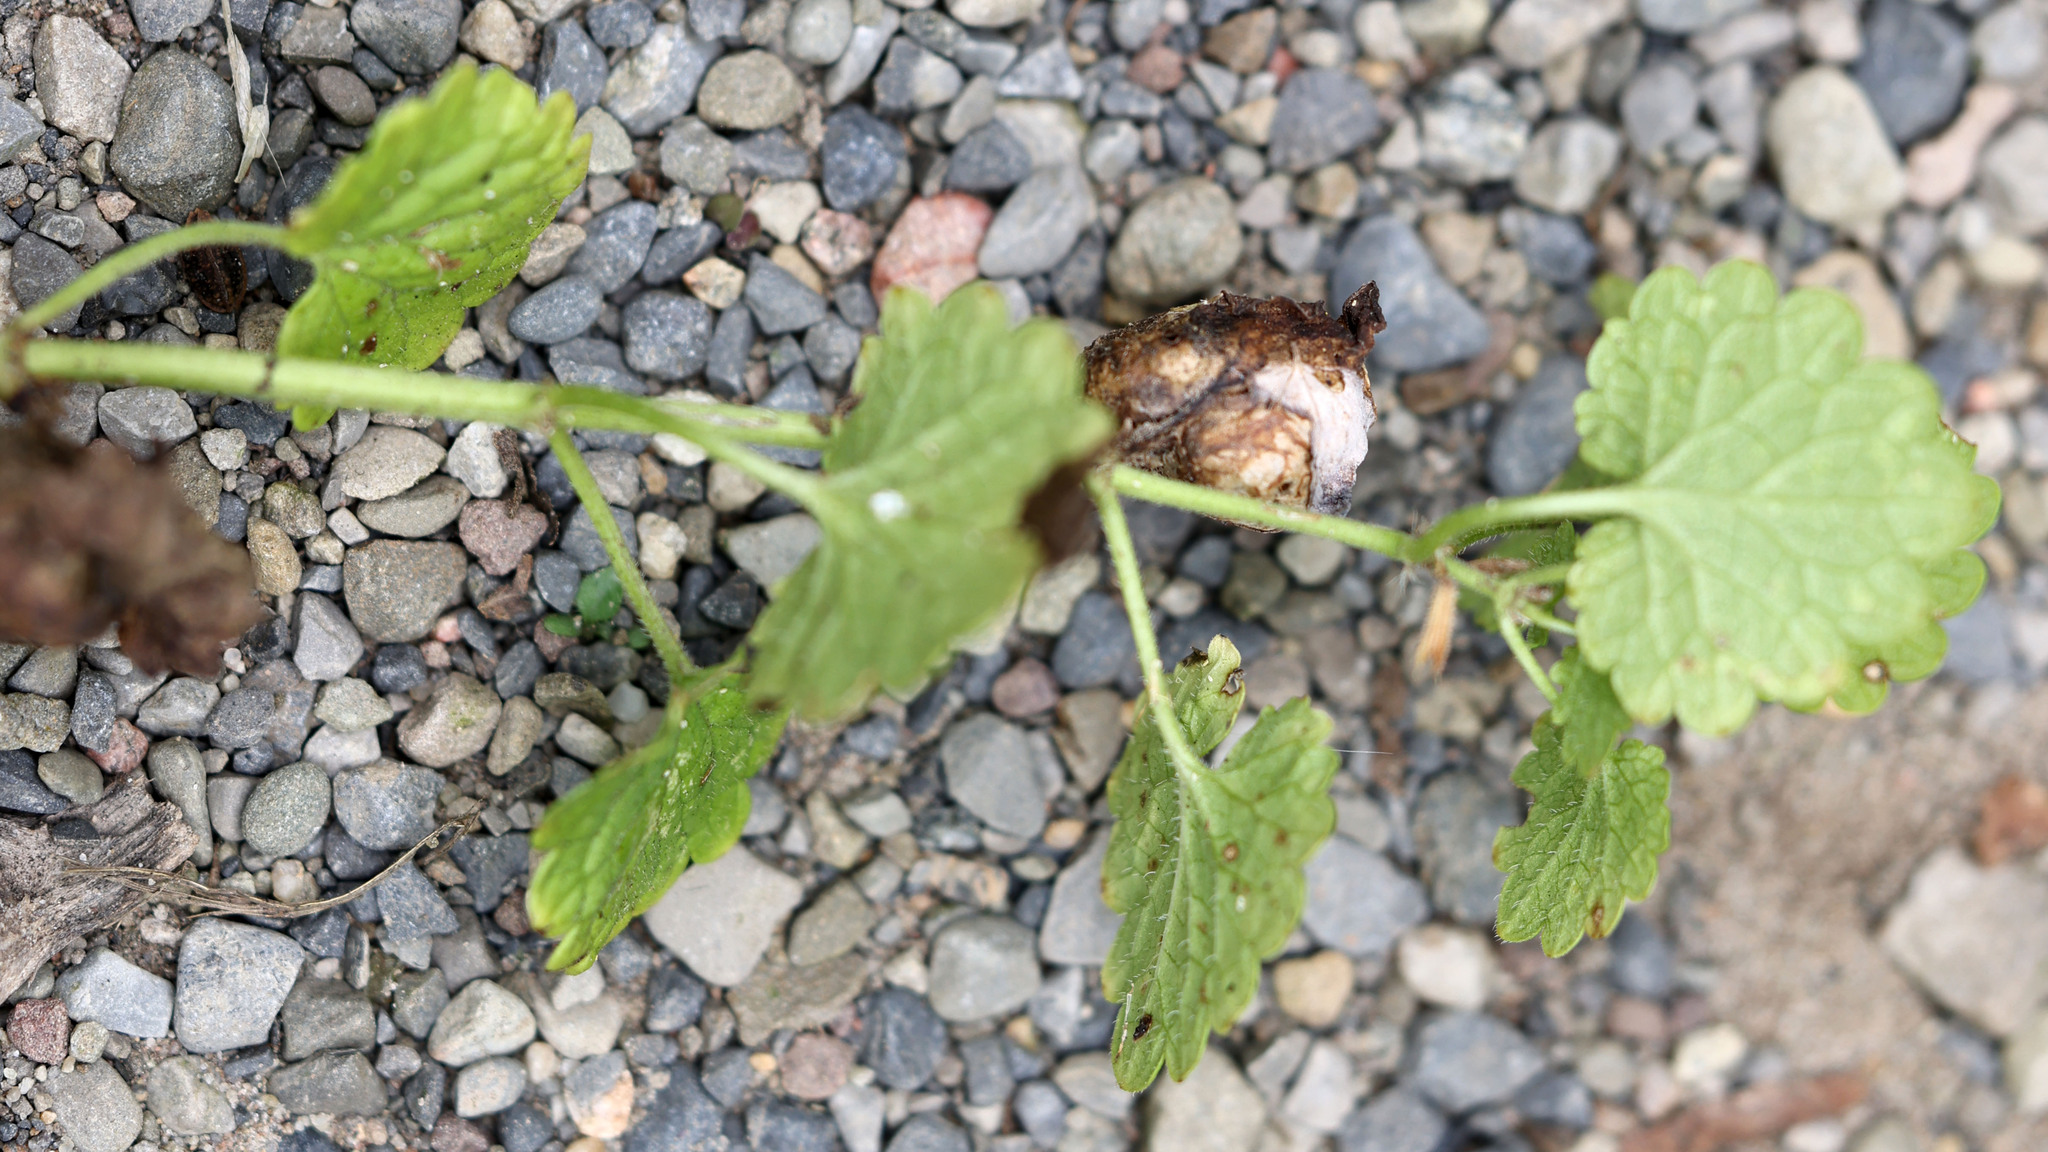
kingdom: Animalia
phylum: Arthropoda
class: Insecta
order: Hymenoptera
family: Cynipidae
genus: Liposthenes
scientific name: Liposthenes glechomae
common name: Gall wasp
